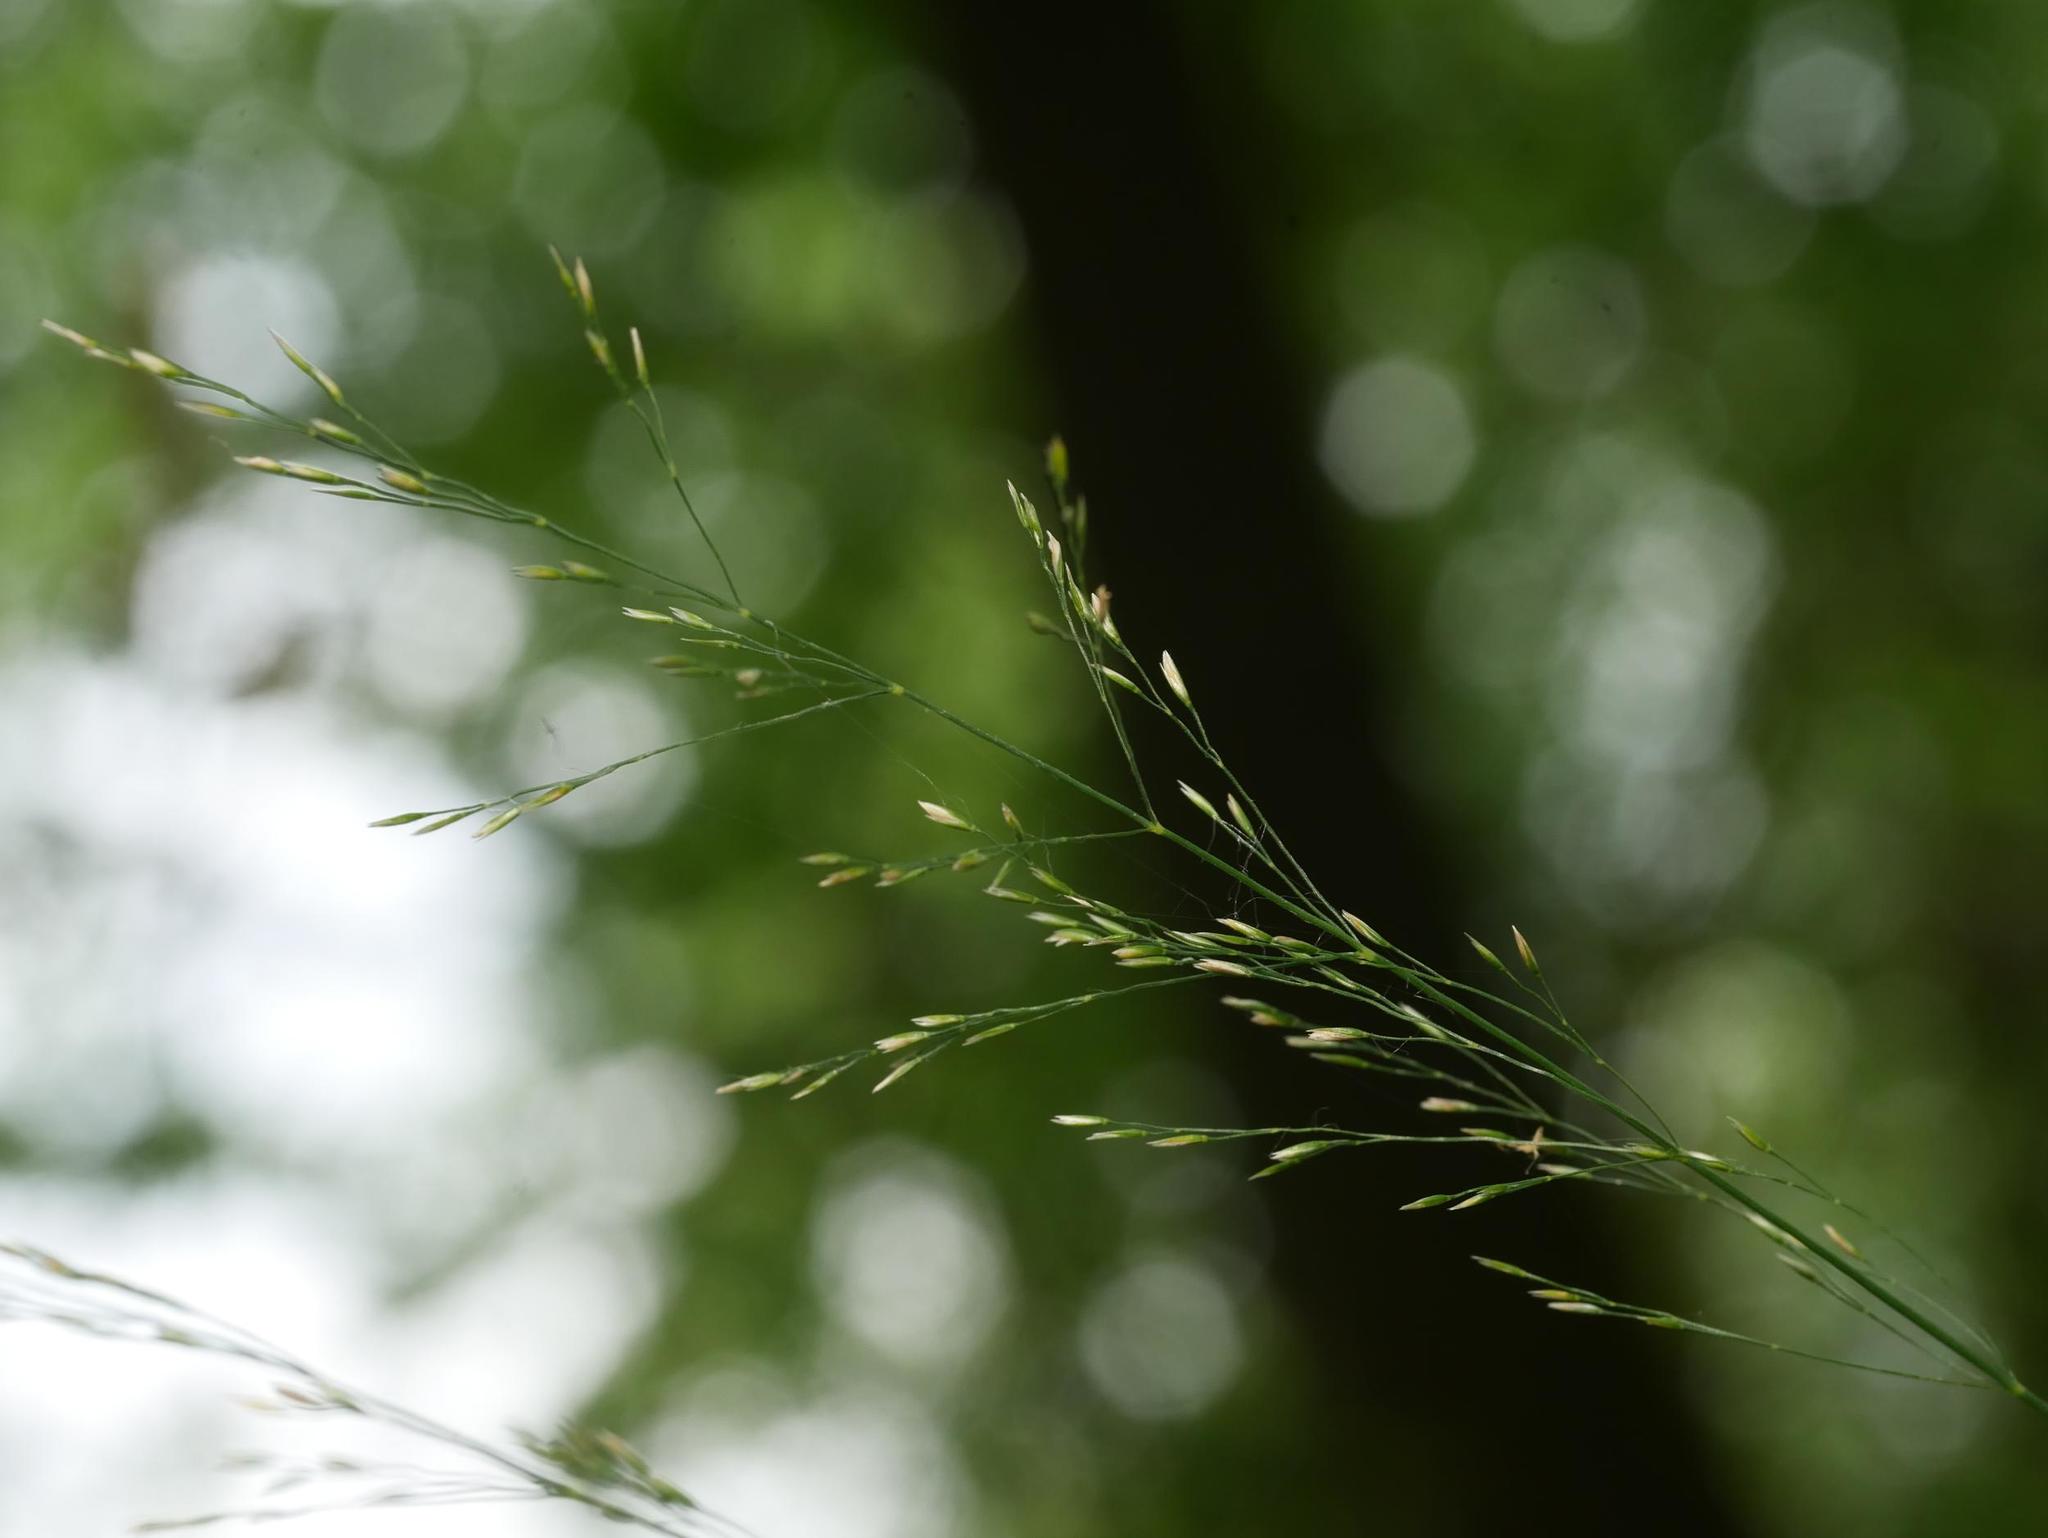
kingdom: Plantae
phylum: Tracheophyta
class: Liliopsida
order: Poales
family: Poaceae
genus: Poa
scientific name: Poa nemoralis
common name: Wood bluegrass
